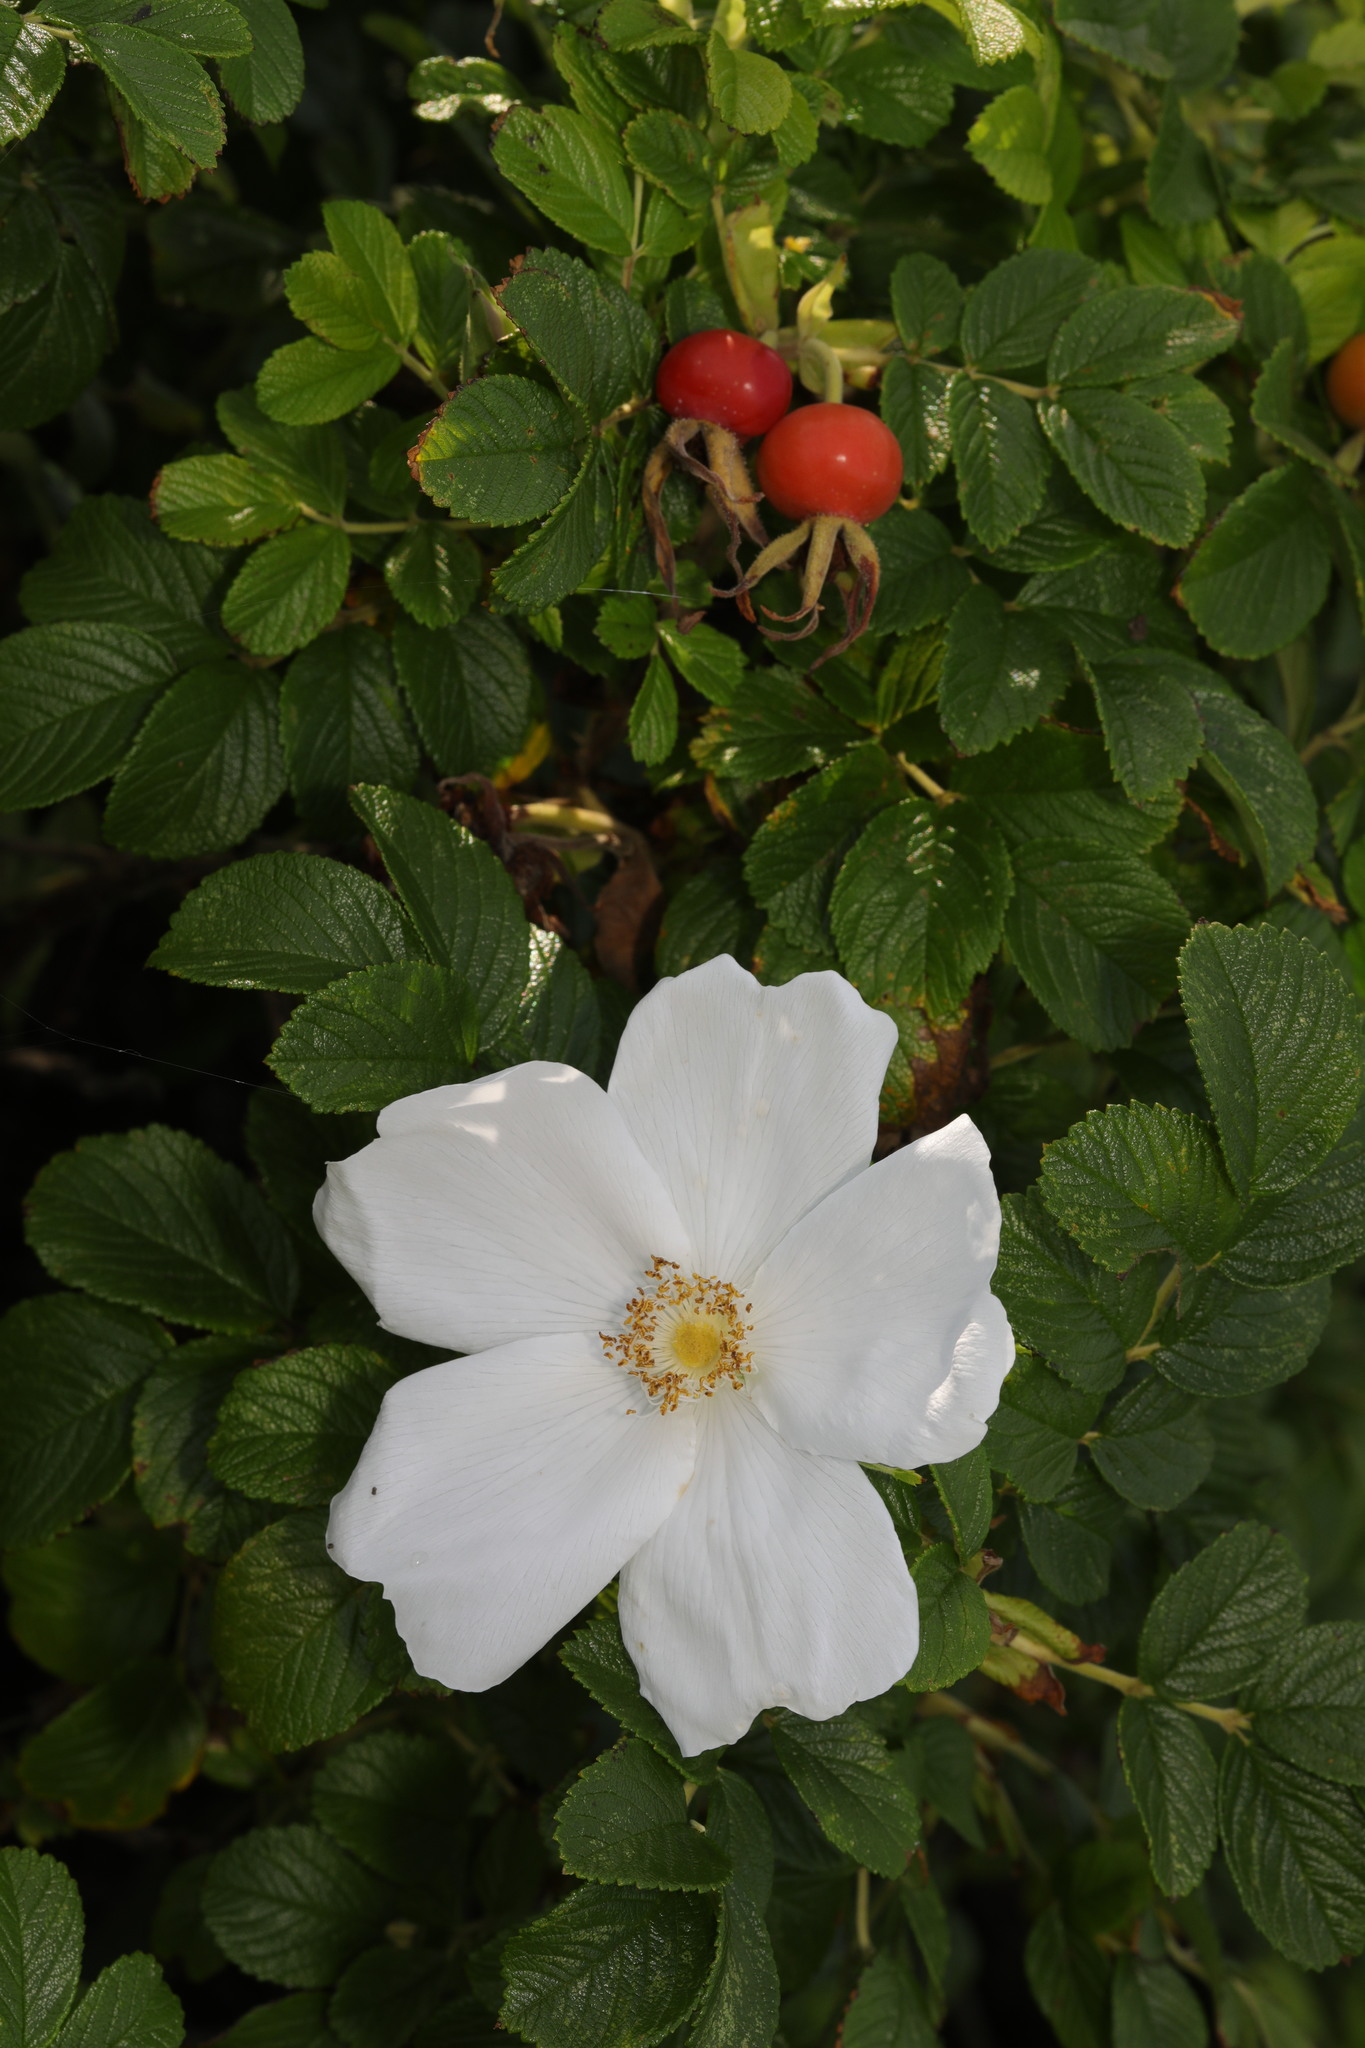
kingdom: Plantae
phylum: Tracheophyta
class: Magnoliopsida
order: Rosales
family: Rosaceae
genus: Rosa
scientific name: Rosa rugosa
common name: Japanese rose
